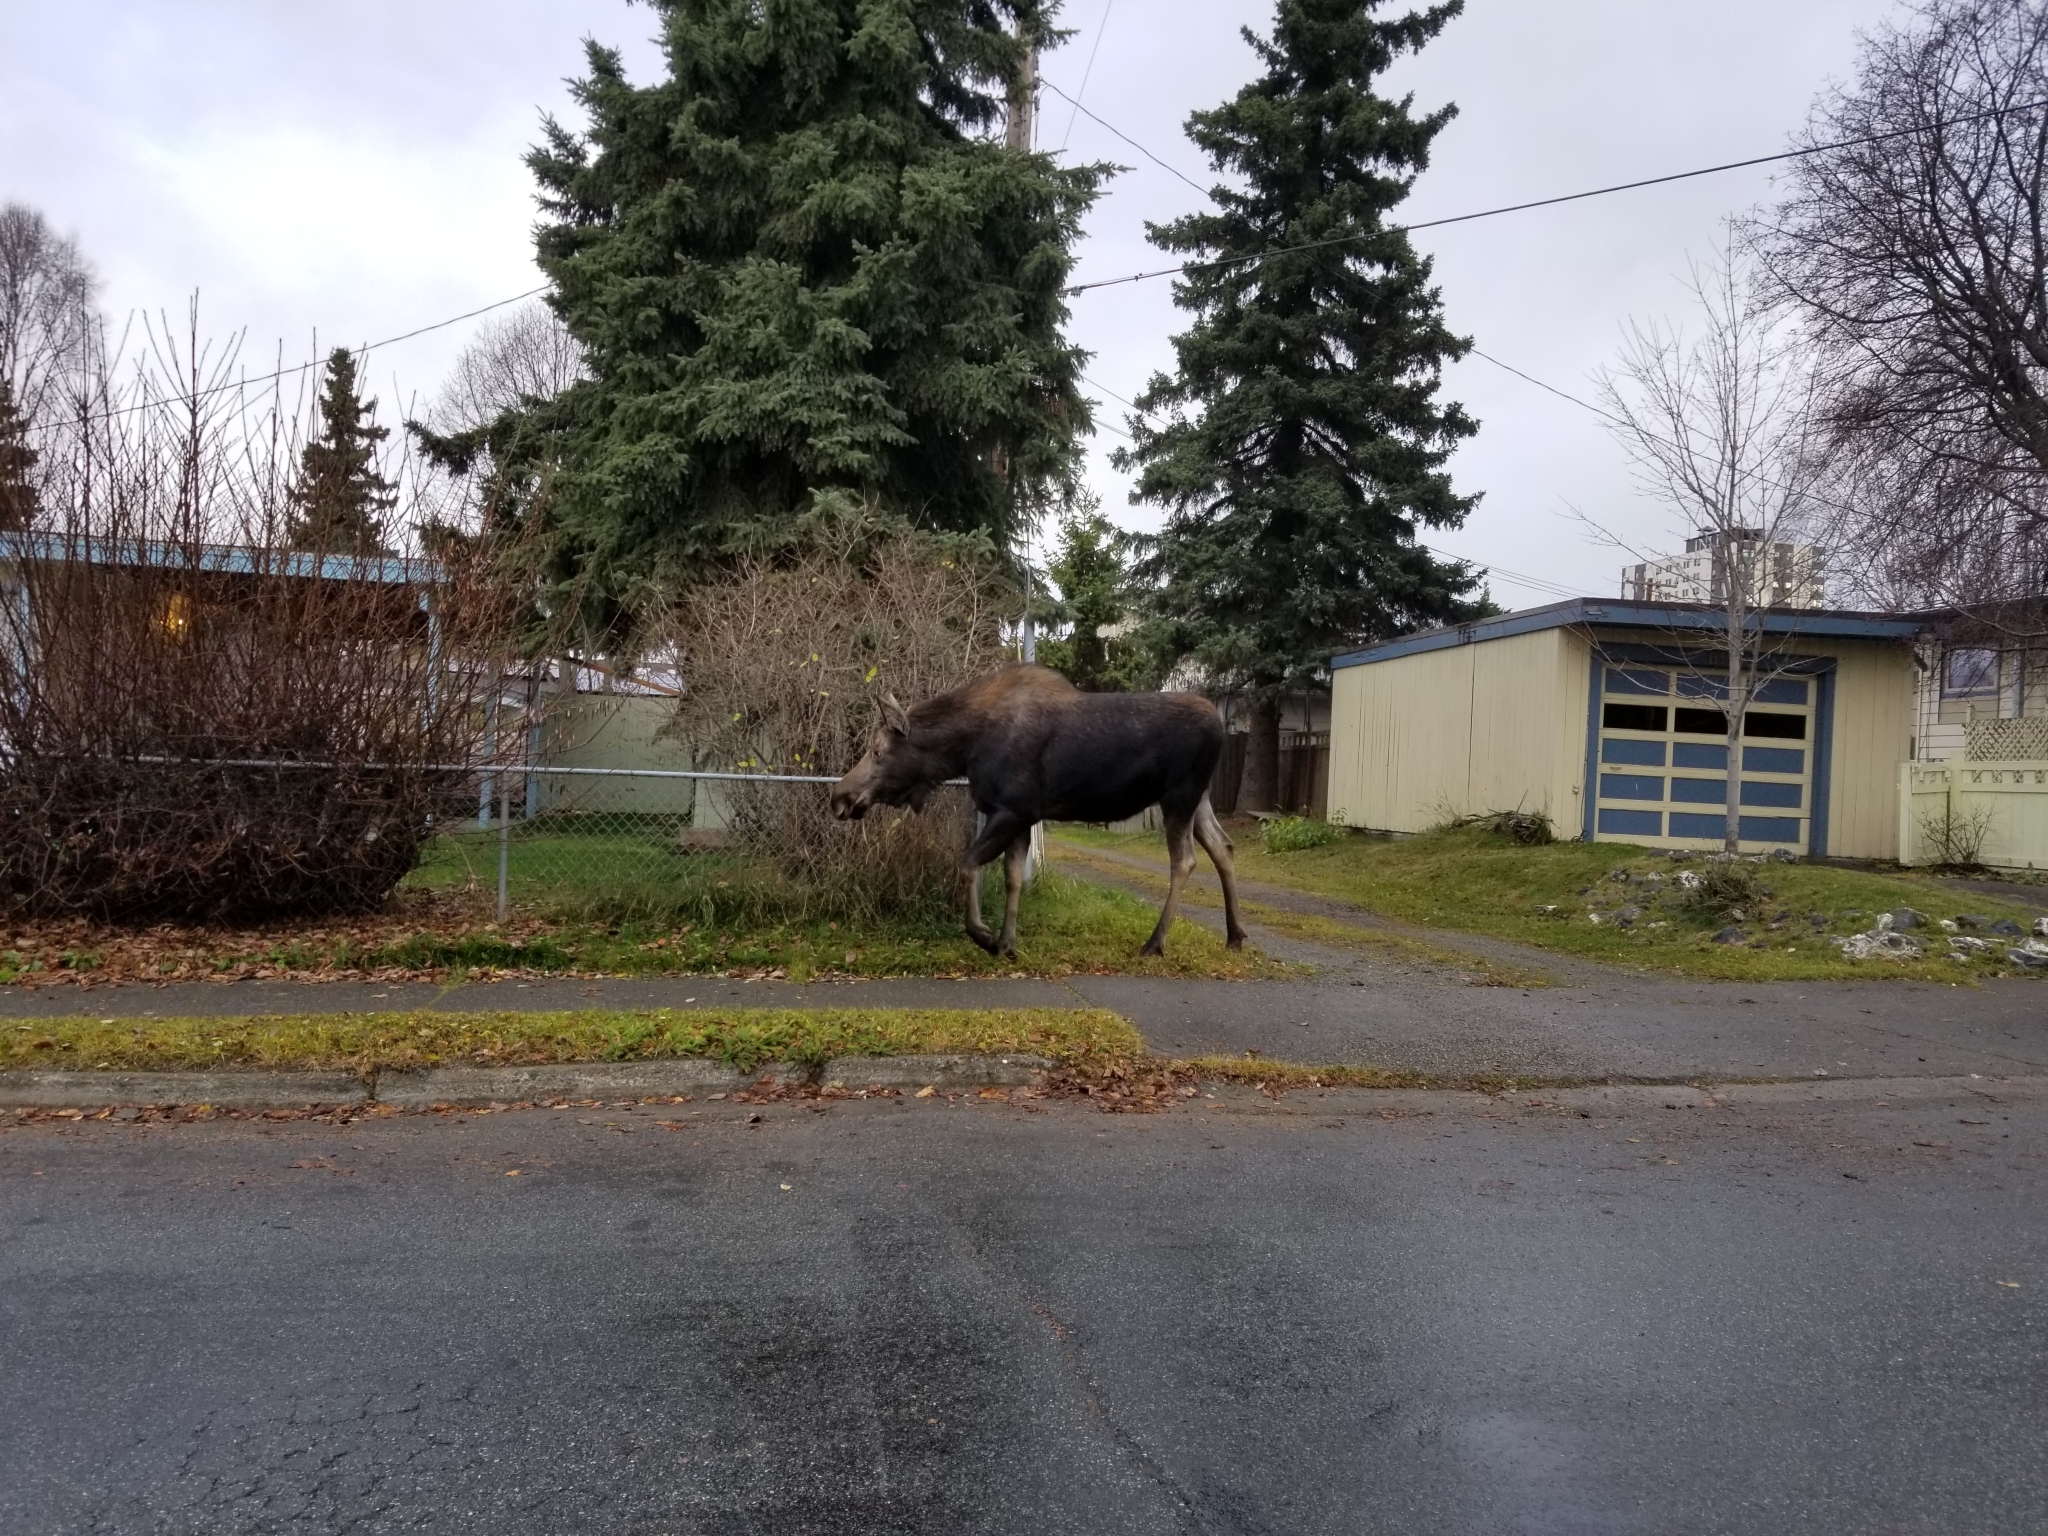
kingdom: Animalia
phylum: Chordata
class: Mammalia
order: Artiodactyla
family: Cervidae
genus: Alces
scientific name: Alces alces
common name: Moose
